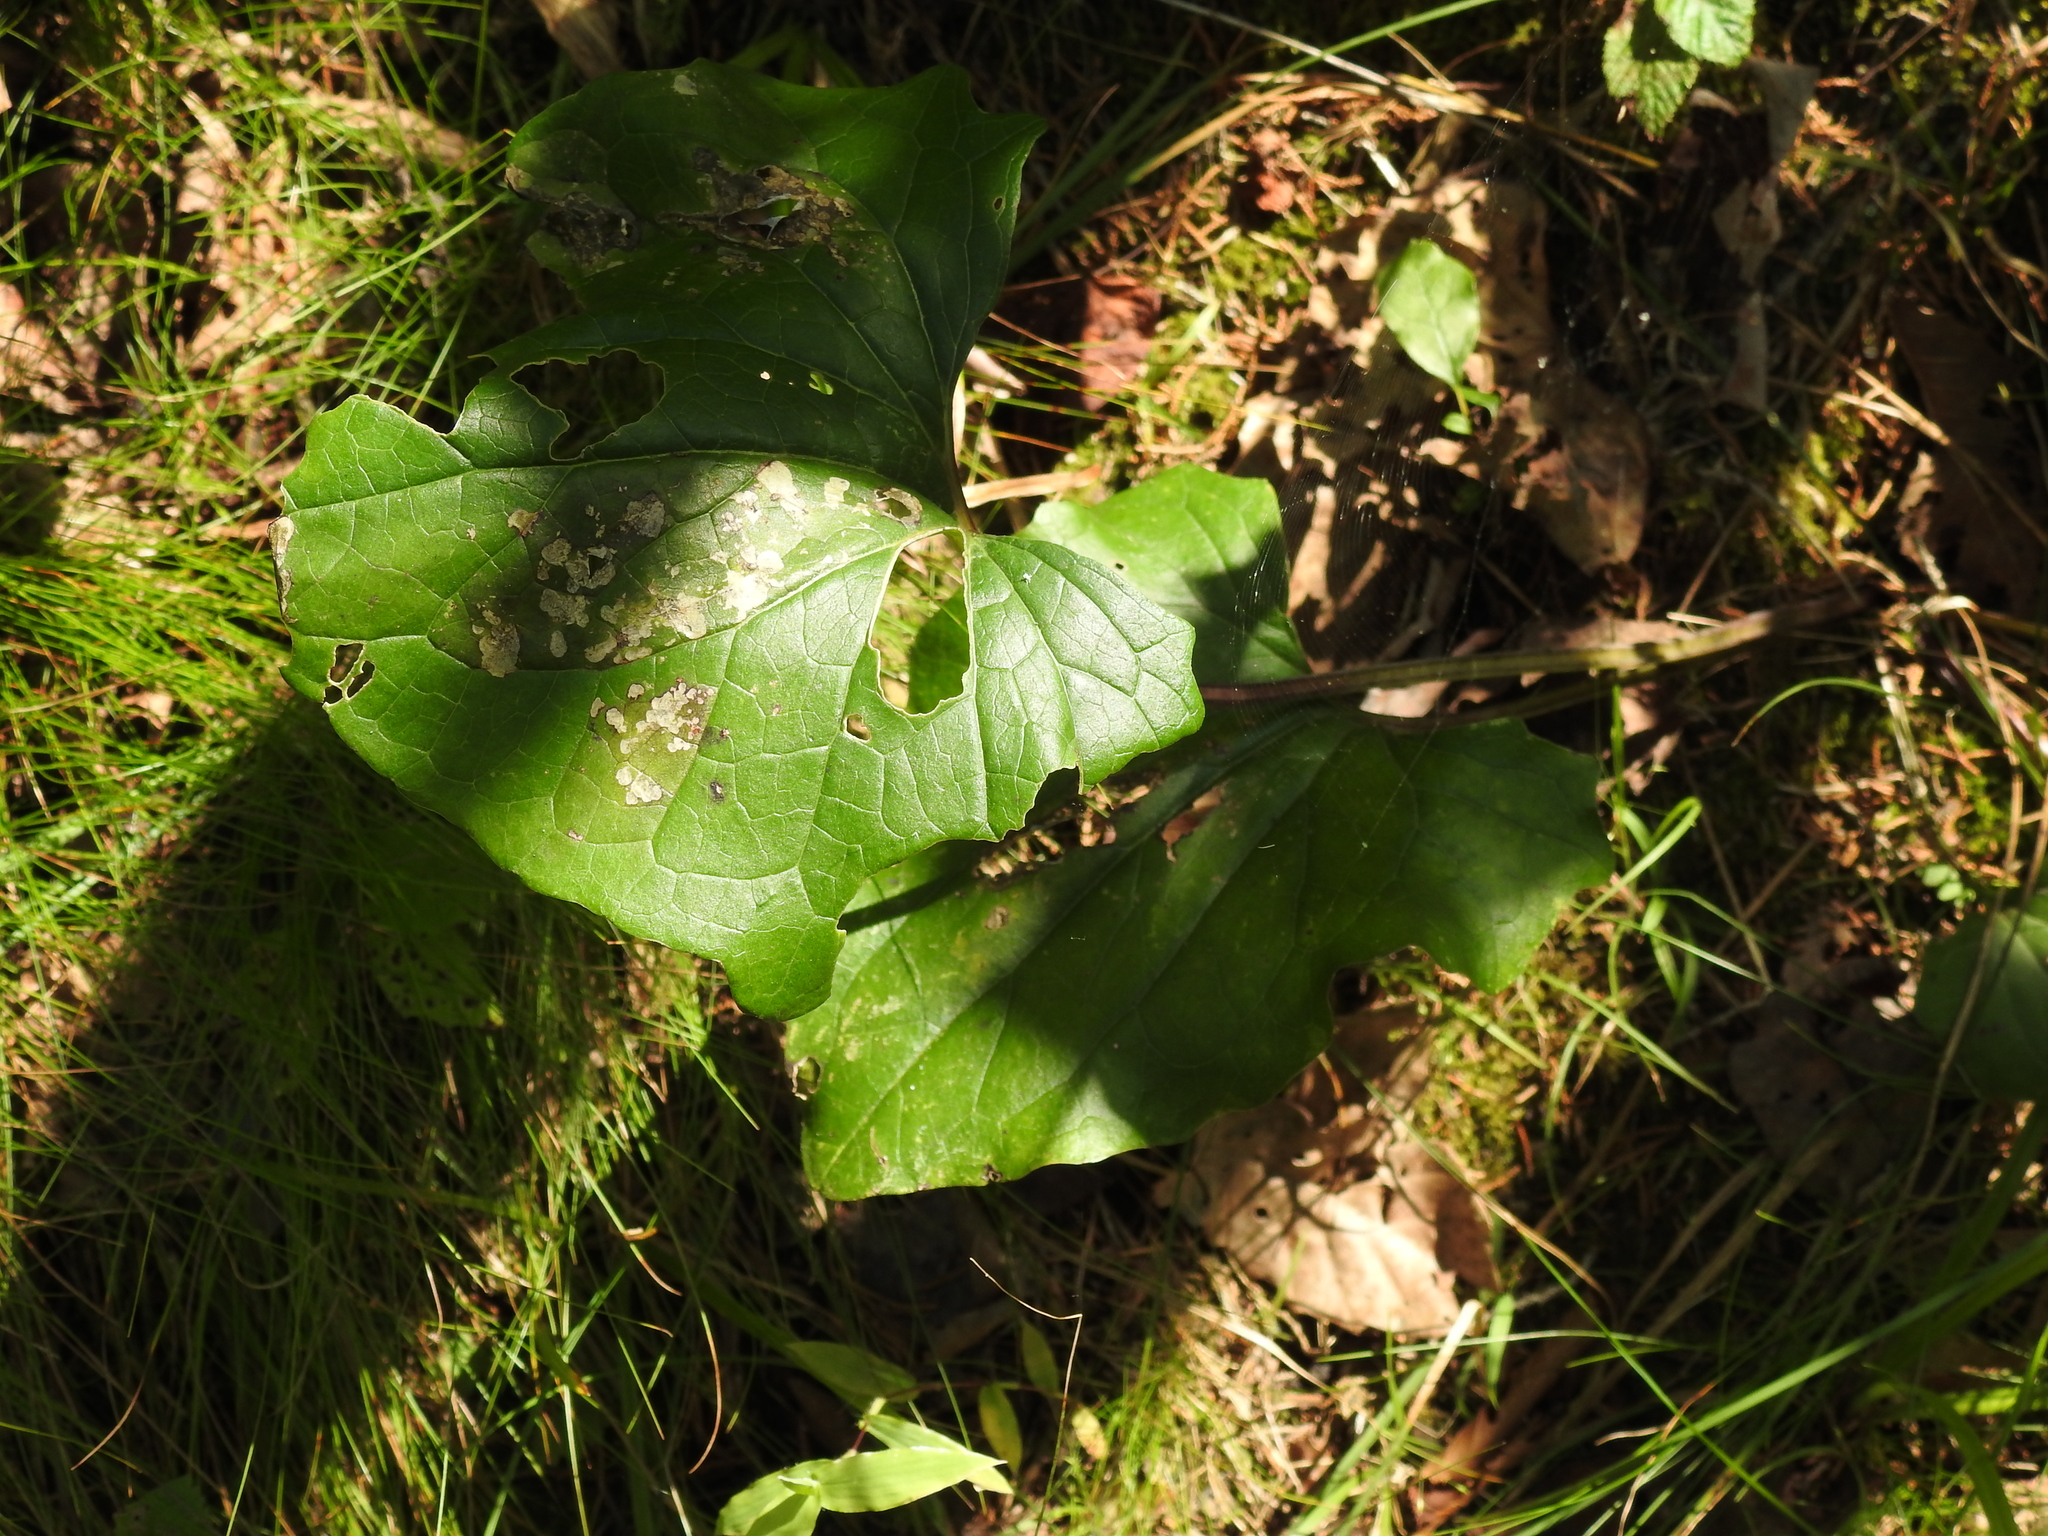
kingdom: Plantae
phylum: Tracheophyta
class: Magnoliopsida
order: Asterales
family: Asteraceae
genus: Tussilago
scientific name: Tussilago farfara
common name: Coltsfoot
